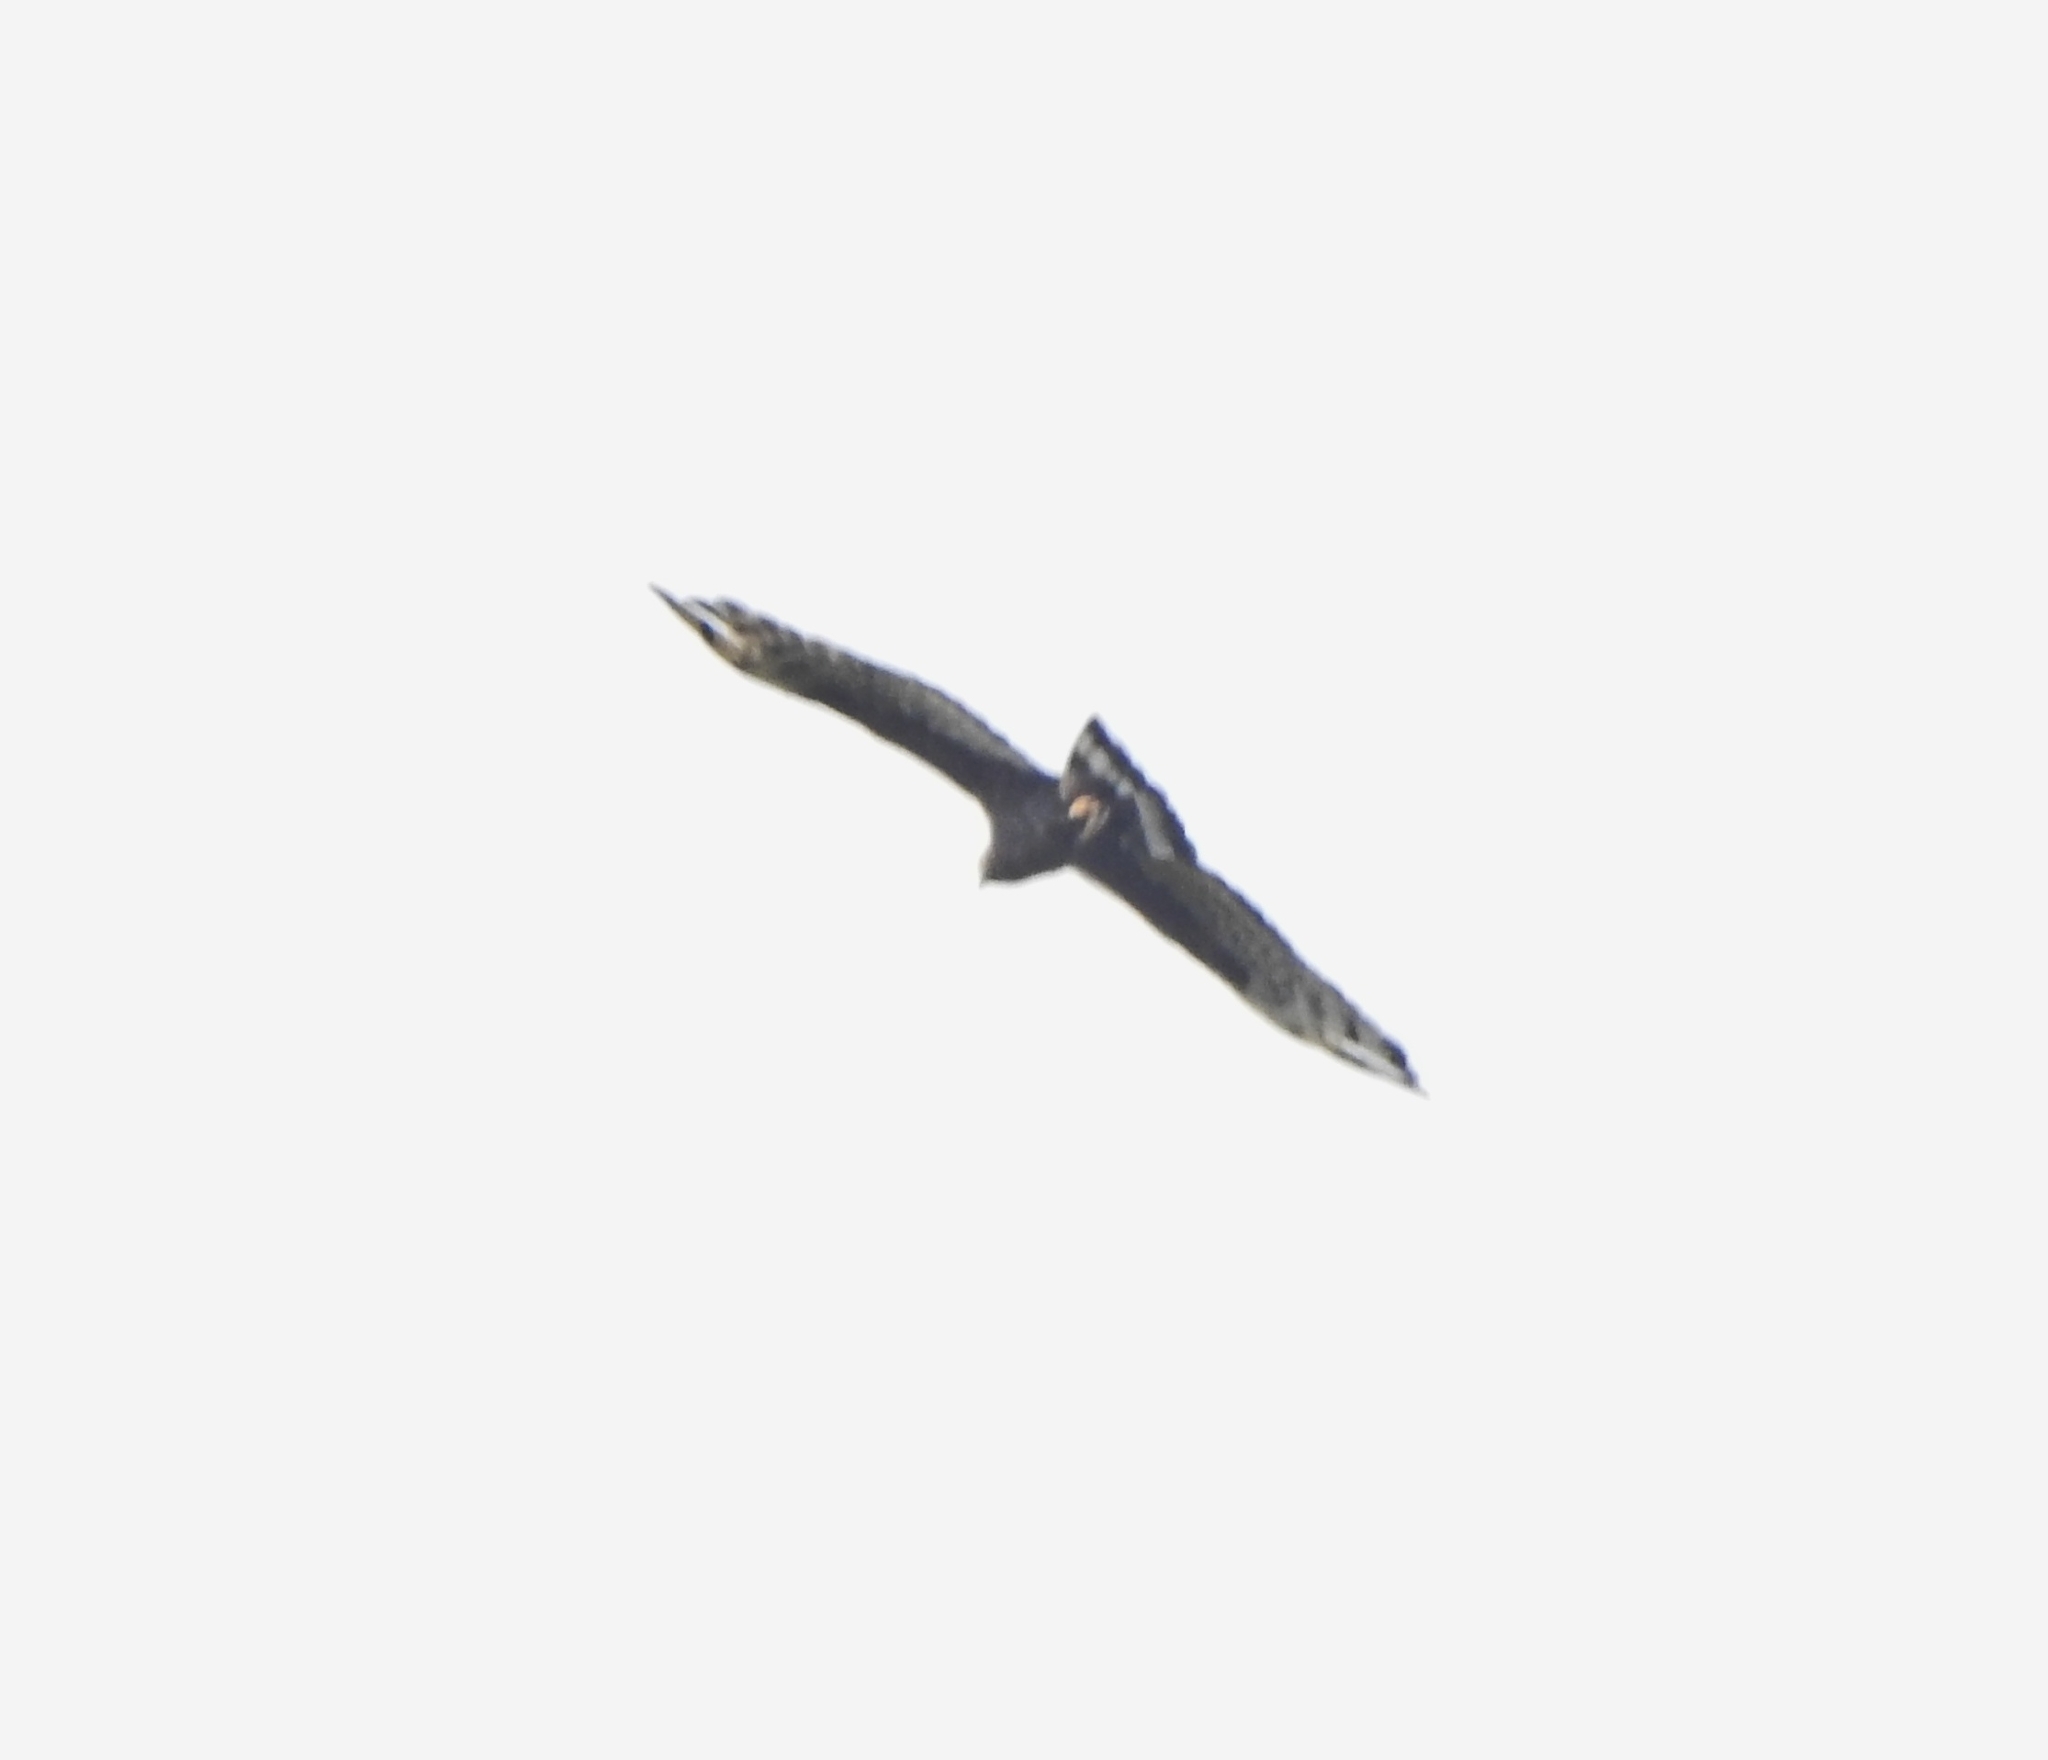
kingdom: Animalia
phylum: Chordata
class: Aves
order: Accipitriformes
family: Accipitridae
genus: Pernis
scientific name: Pernis ptilorhynchus
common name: Crested honey buzzard
